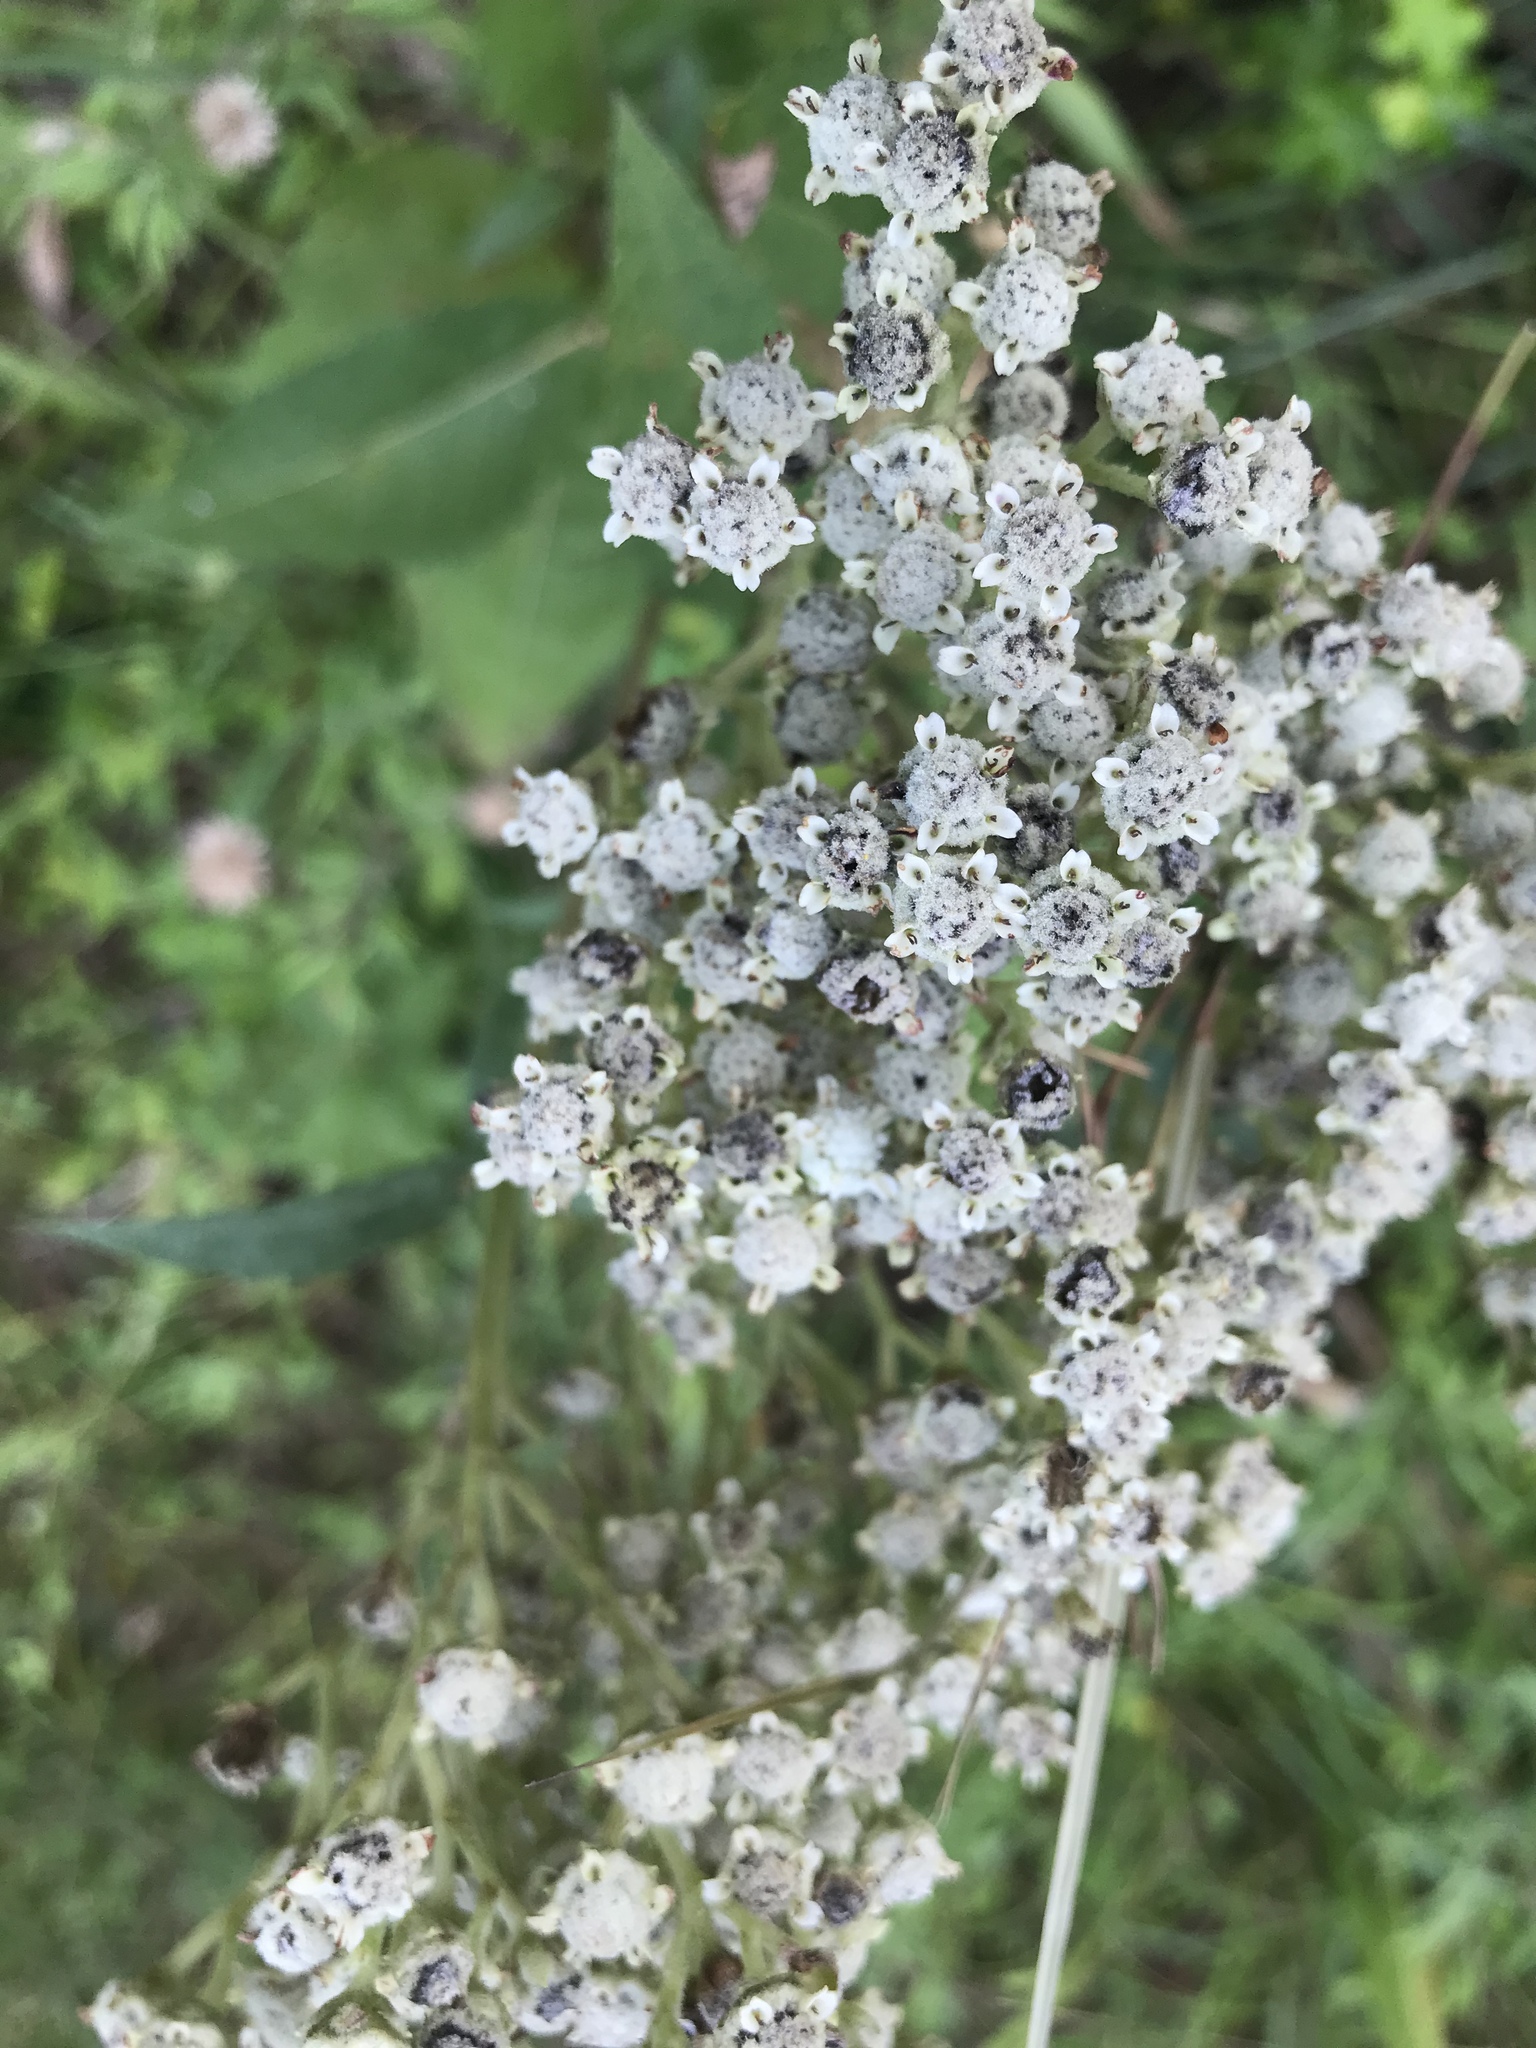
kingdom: Plantae
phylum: Tracheophyta
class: Magnoliopsida
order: Asterales
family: Asteraceae
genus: Parthenium
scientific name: Parthenium integrifolium
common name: American feverfew
